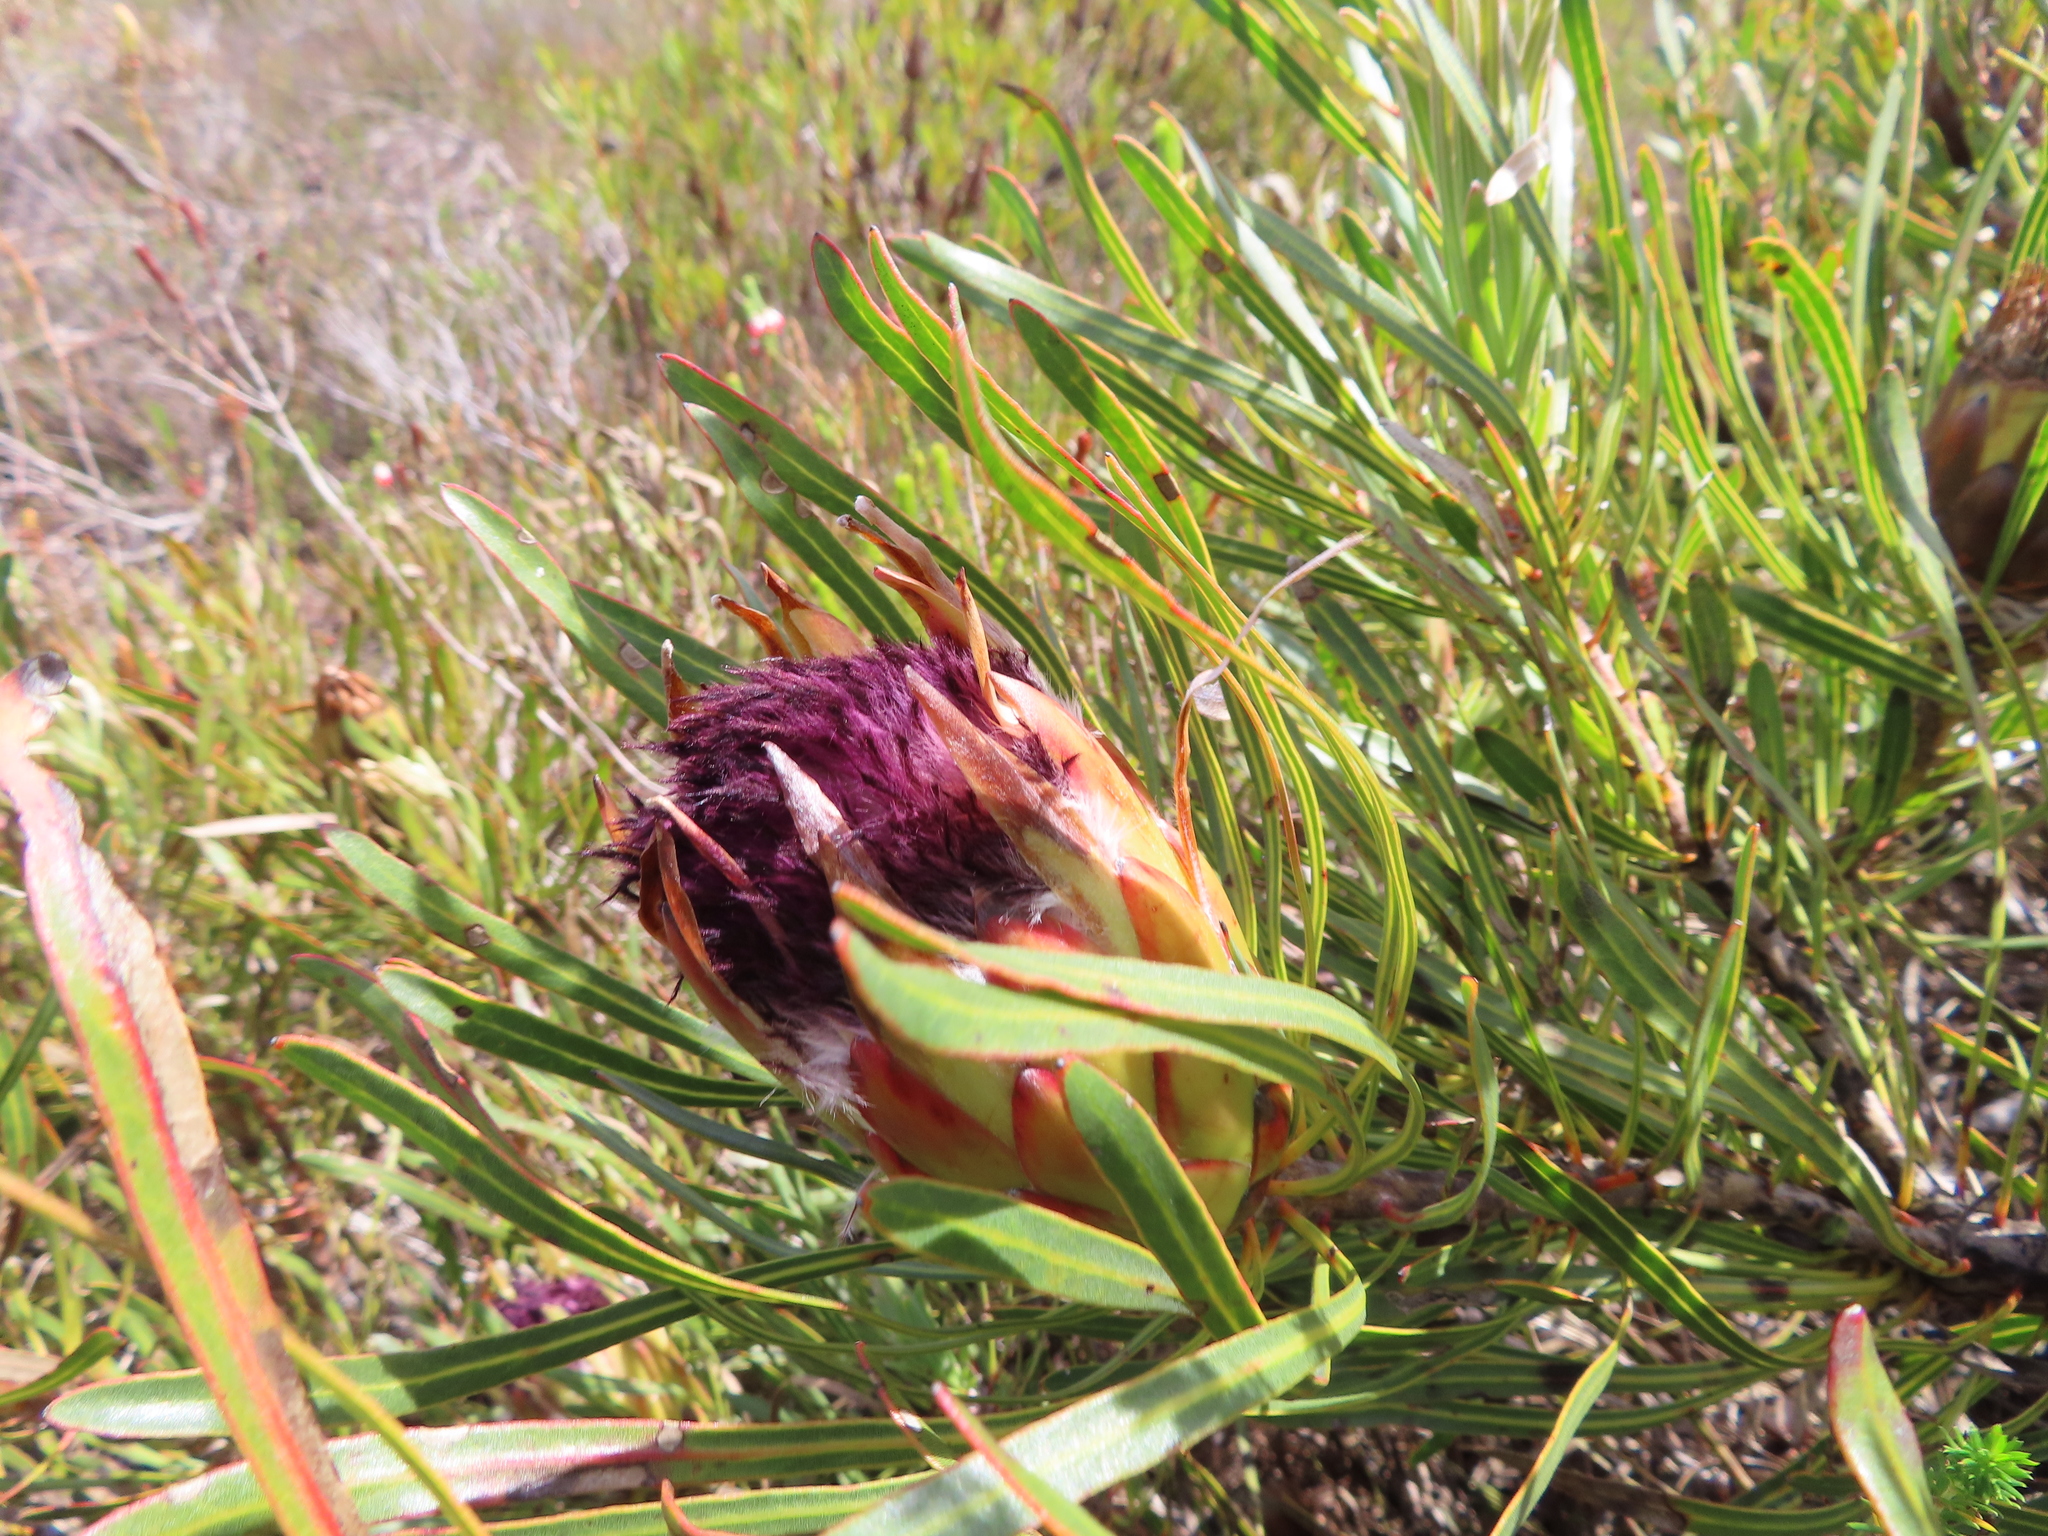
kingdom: Plantae
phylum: Tracheophyta
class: Magnoliopsida
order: Proteales
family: Proteaceae
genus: Protea
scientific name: Protea longifolia
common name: Long-leaf sugarbush
